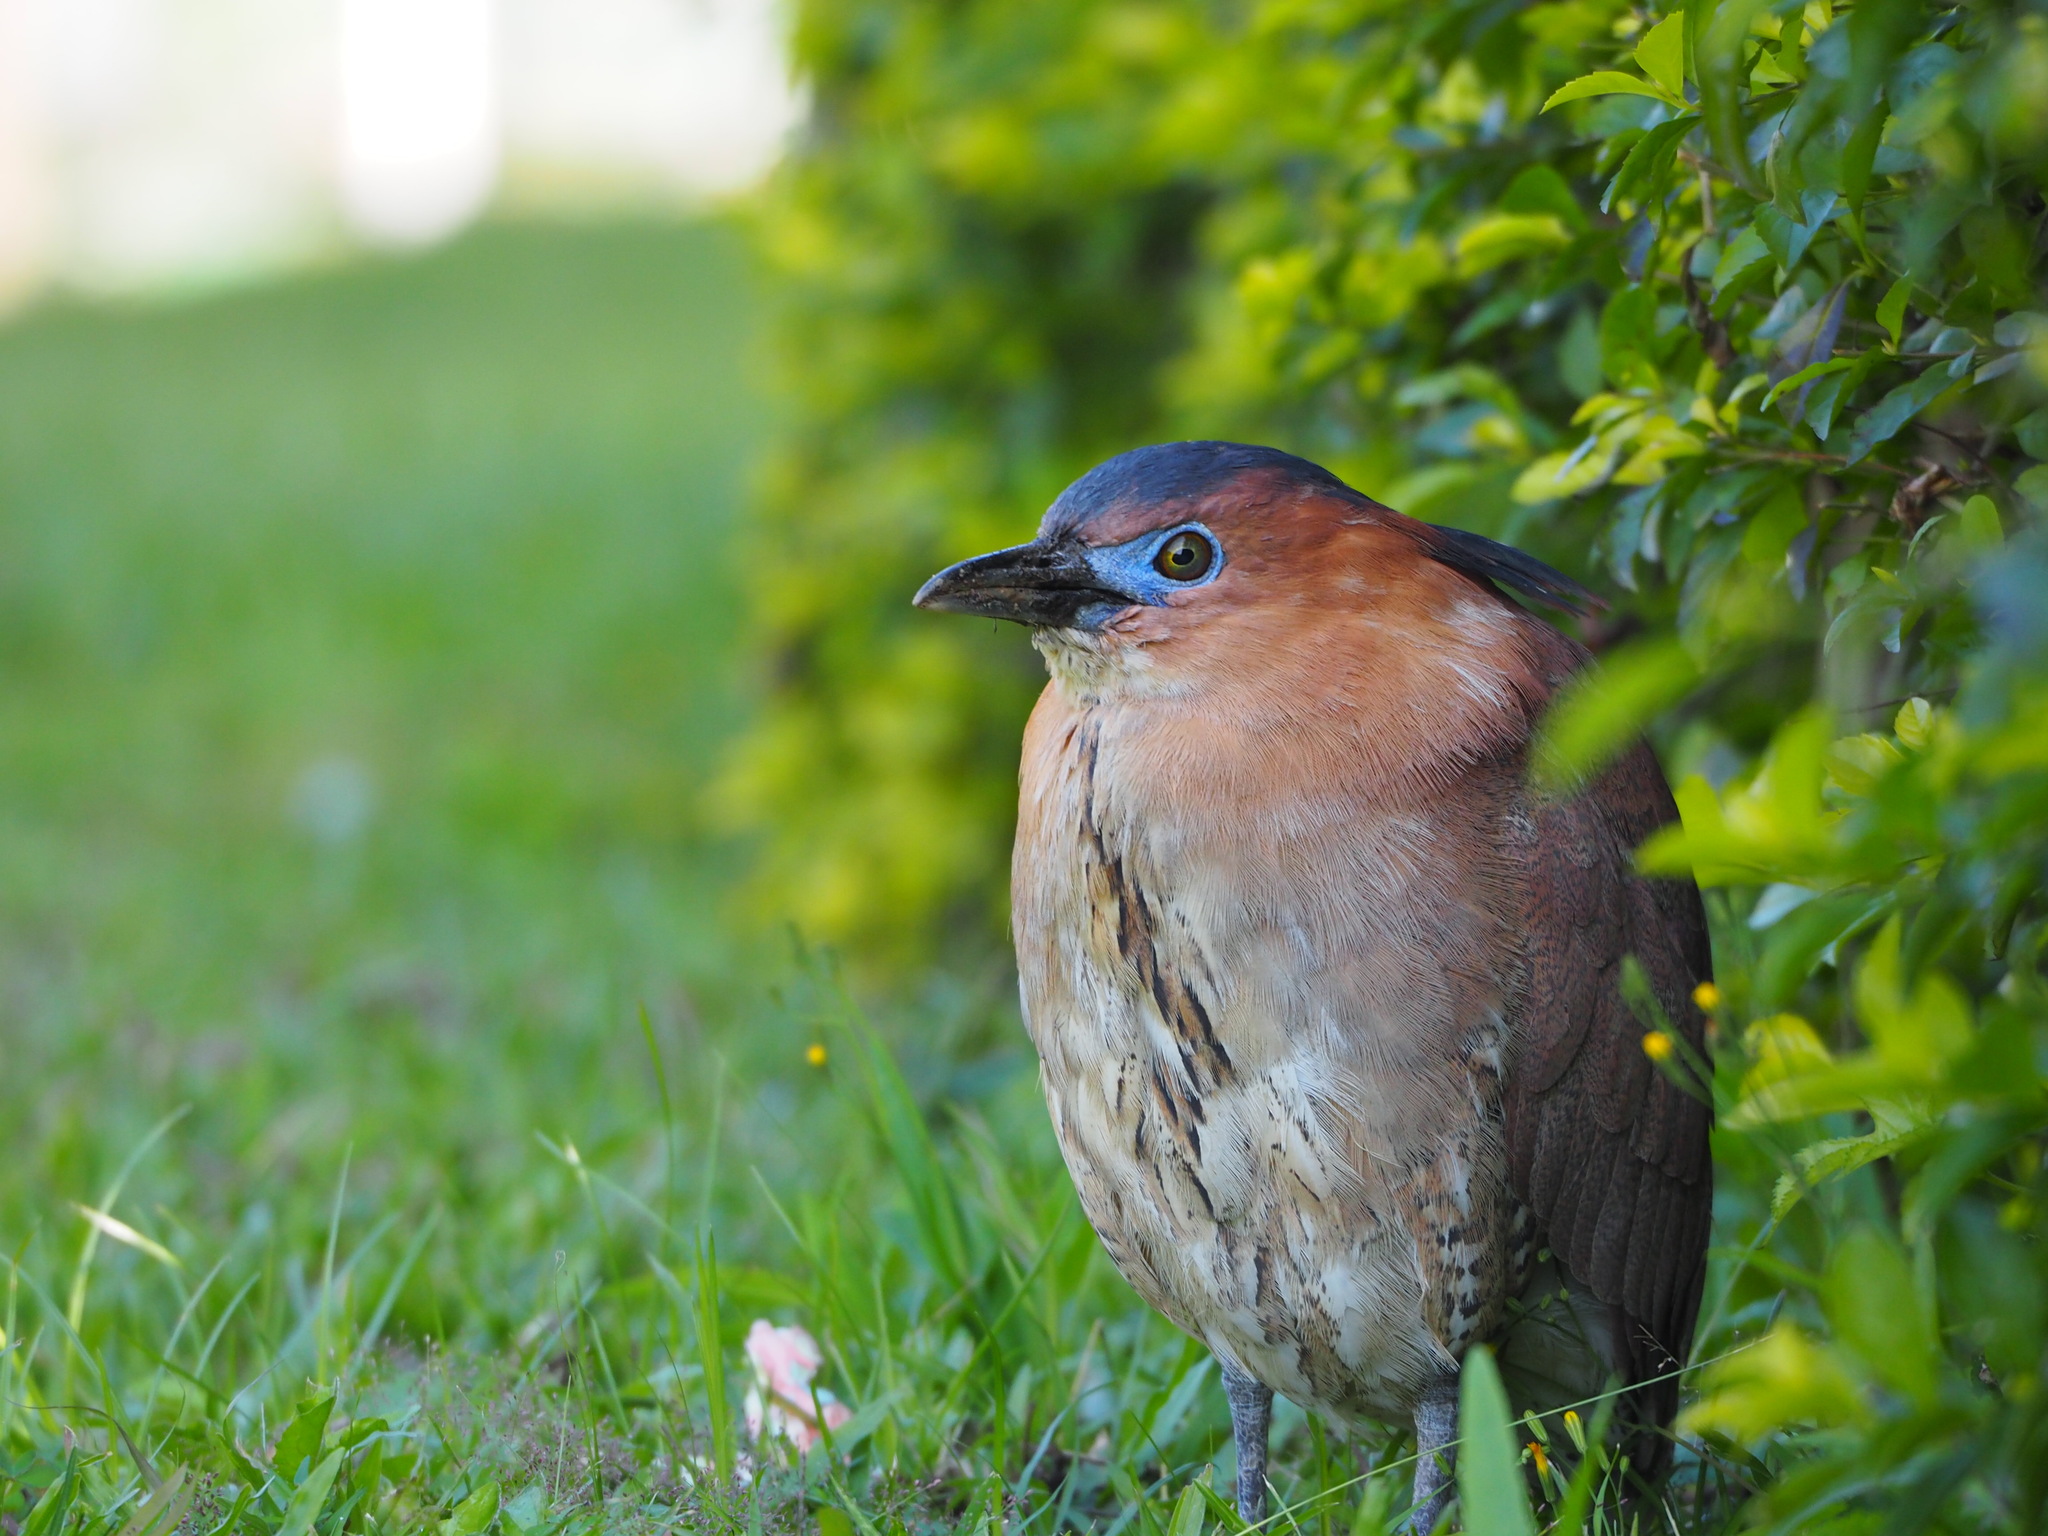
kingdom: Animalia
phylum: Chordata
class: Aves
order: Pelecaniformes
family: Ardeidae
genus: Gorsachius
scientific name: Gorsachius melanolophus
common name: Malayan night heron
